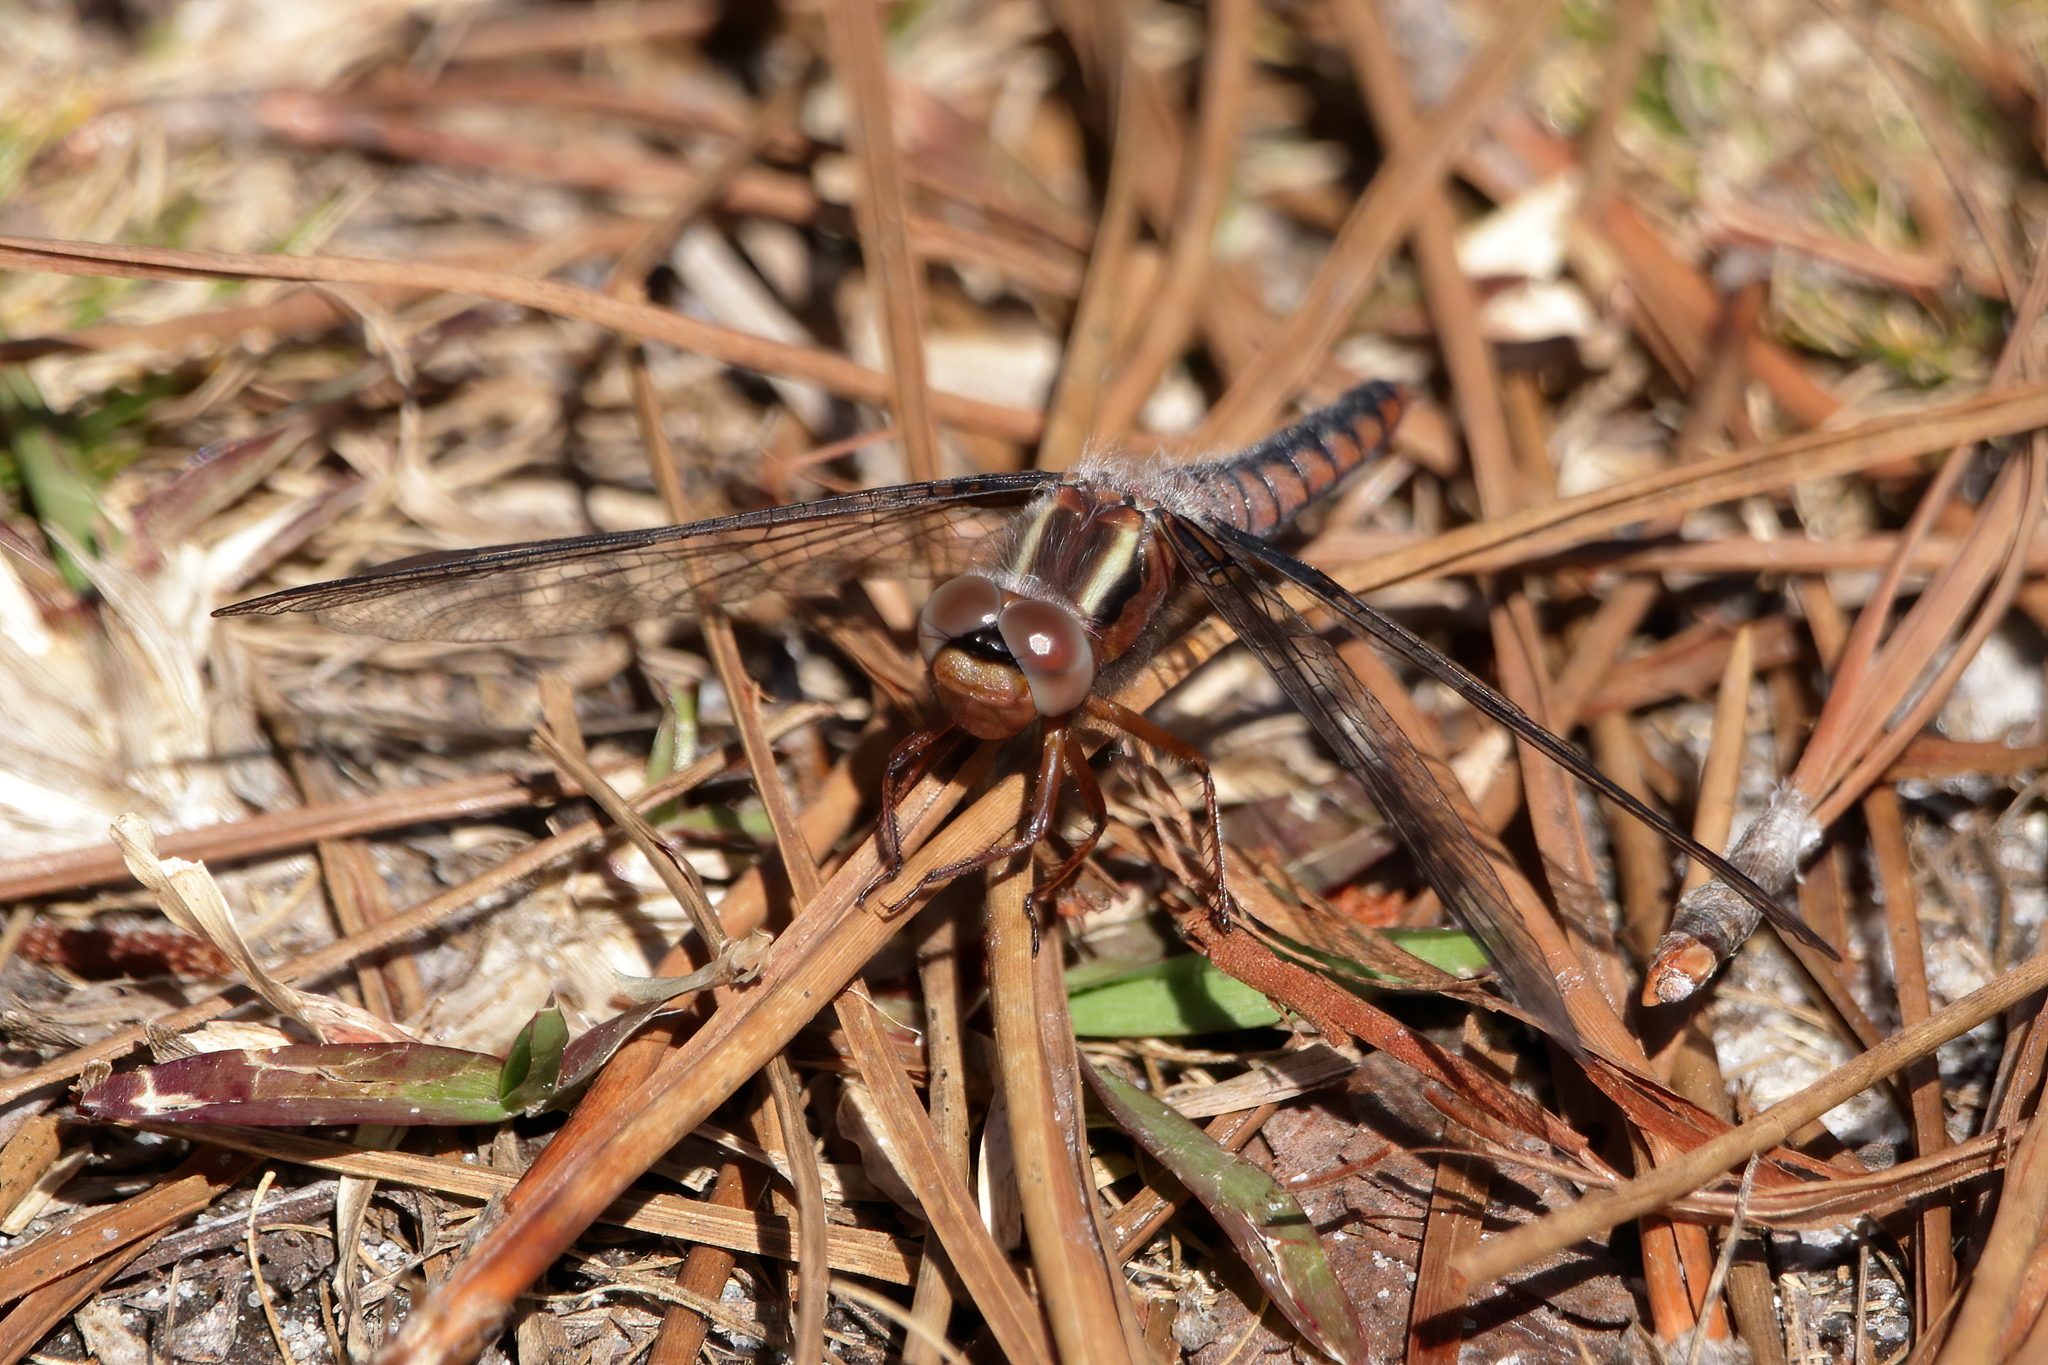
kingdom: Animalia
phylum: Arthropoda
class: Insecta
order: Odonata
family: Libellulidae
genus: Ladona
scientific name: Ladona deplanata
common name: Blue corporal
